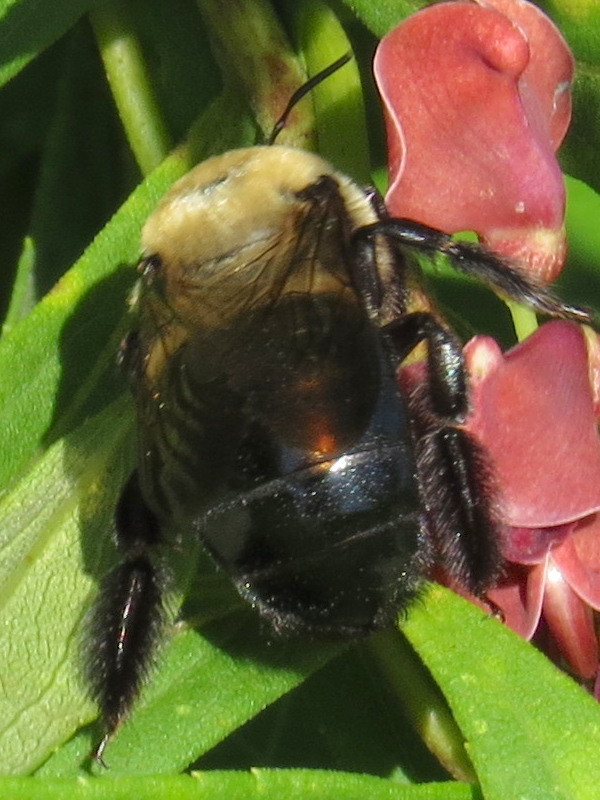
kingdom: Animalia
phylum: Arthropoda
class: Insecta
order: Hymenoptera
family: Apidae
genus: Xylocopa
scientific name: Xylocopa virginica
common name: Carpenter bee
